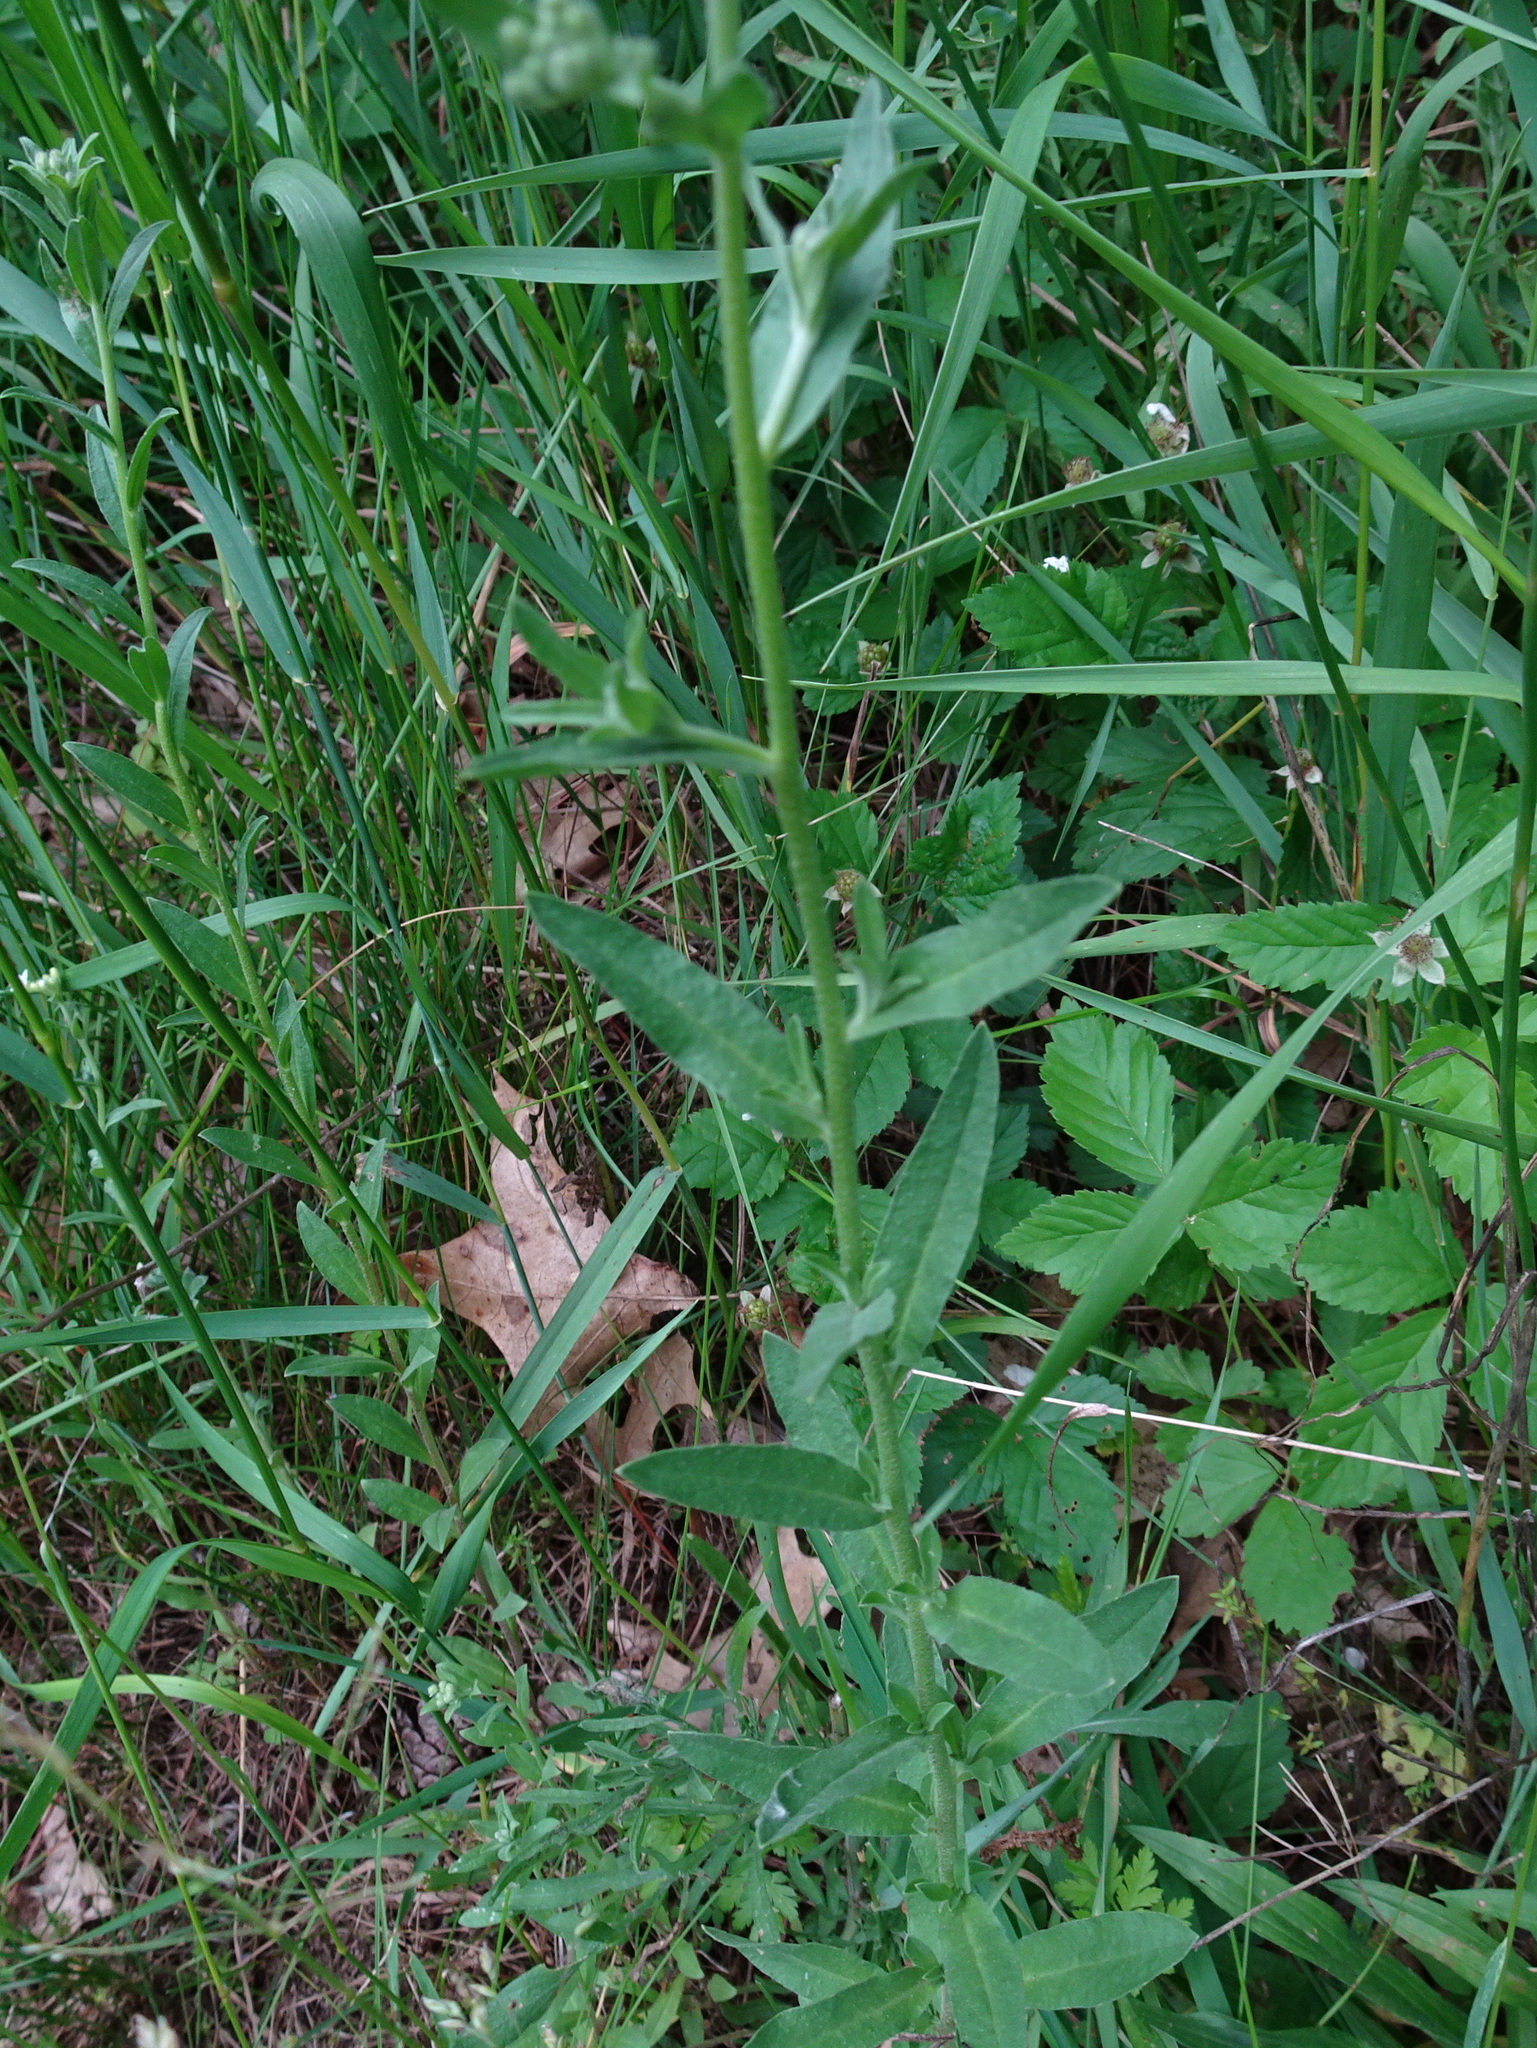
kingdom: Plantae
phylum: Tracheophyta
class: Magnoliopsida
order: Brassicales
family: Brassicaceae
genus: Berteroa
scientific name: Berteroa incana
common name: Hoary alison
